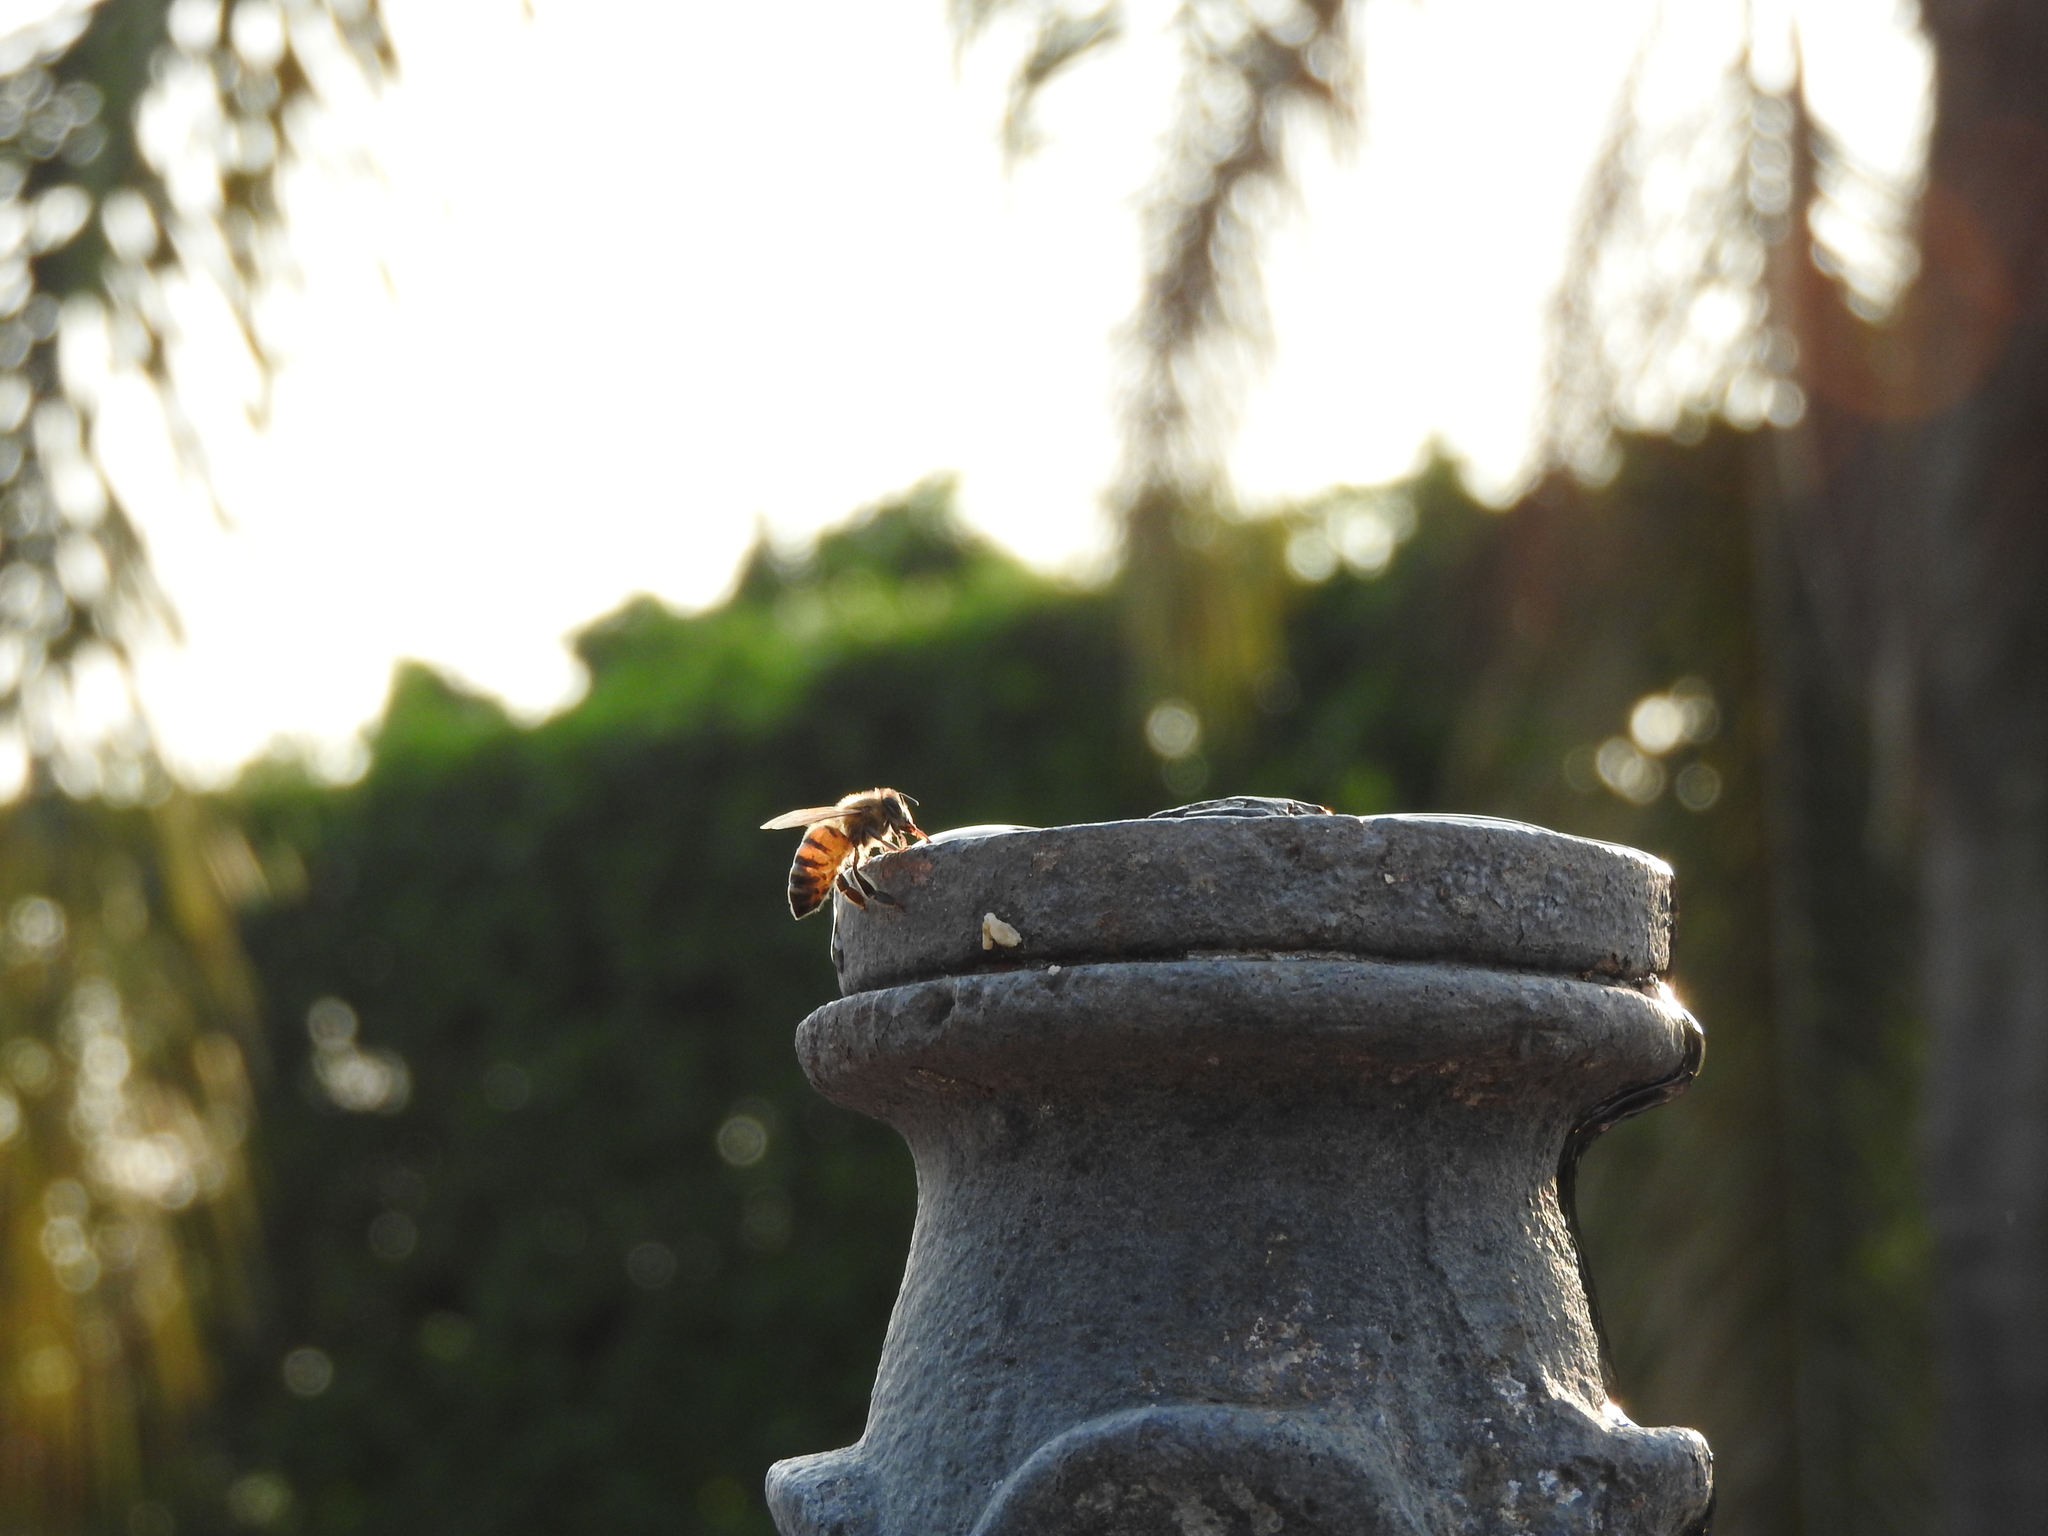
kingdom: Animalia
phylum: Arthropoda
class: Insecta
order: Hymenoptera
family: Apidae
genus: Apis
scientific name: Apis mellifera
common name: Honey bee
